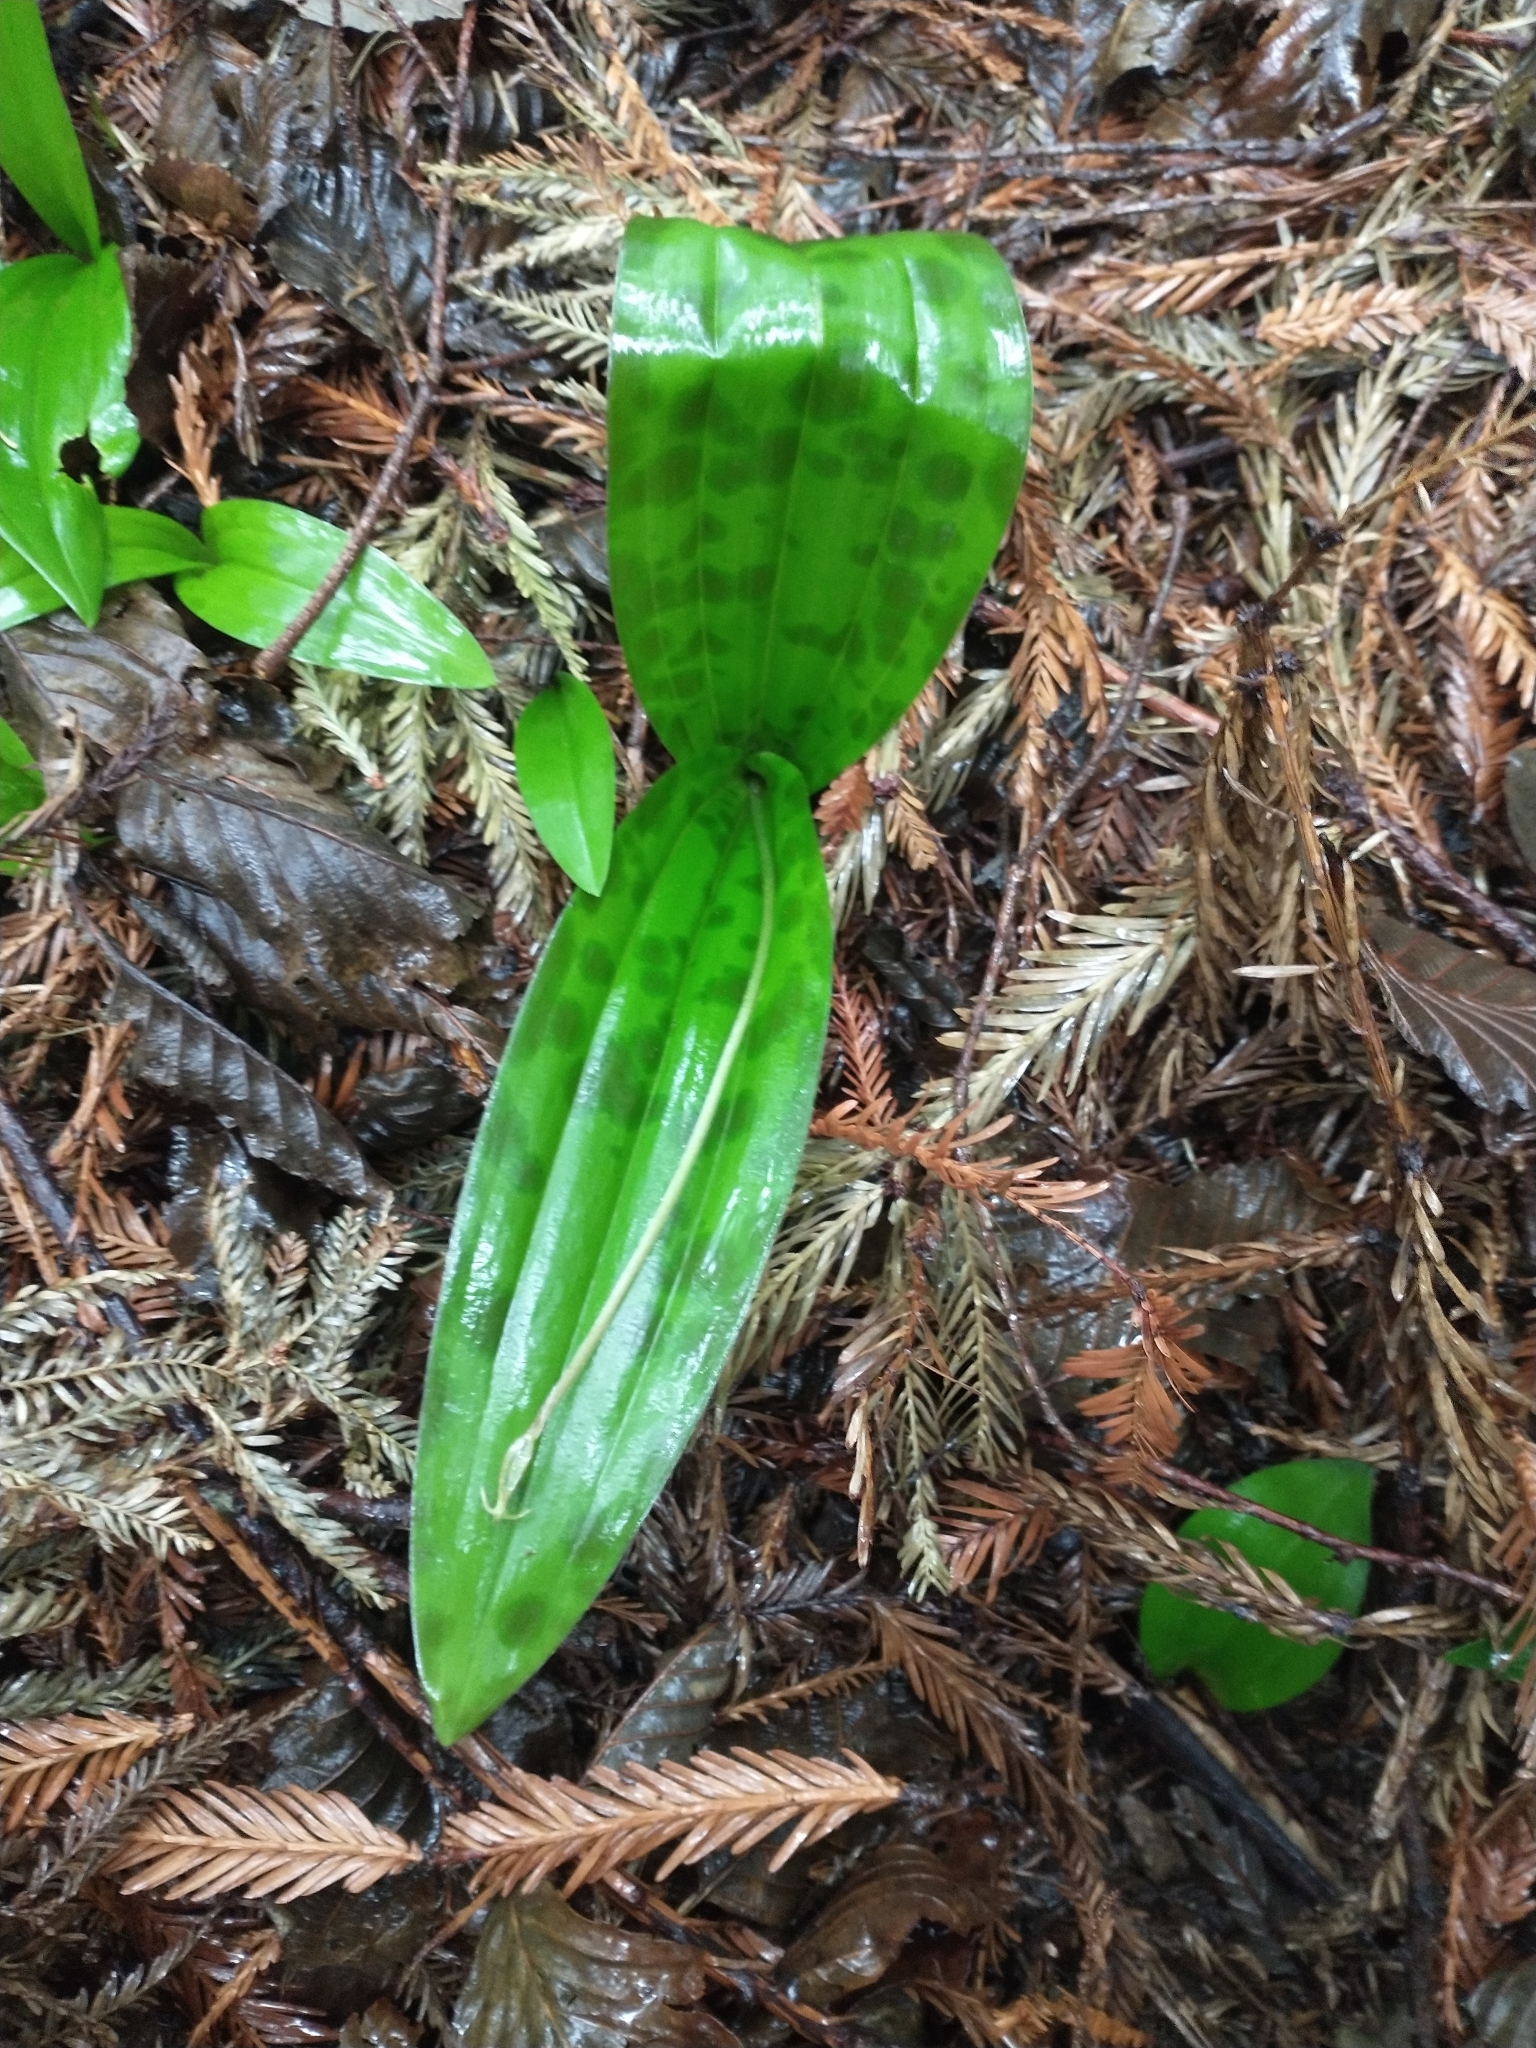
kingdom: Plantae
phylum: Tracheophyta
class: Liliopsida
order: Liliales
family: Liliaceae
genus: Scoliopus
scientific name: Scoliopus bigelovii
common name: Foetid adder's-tongue
